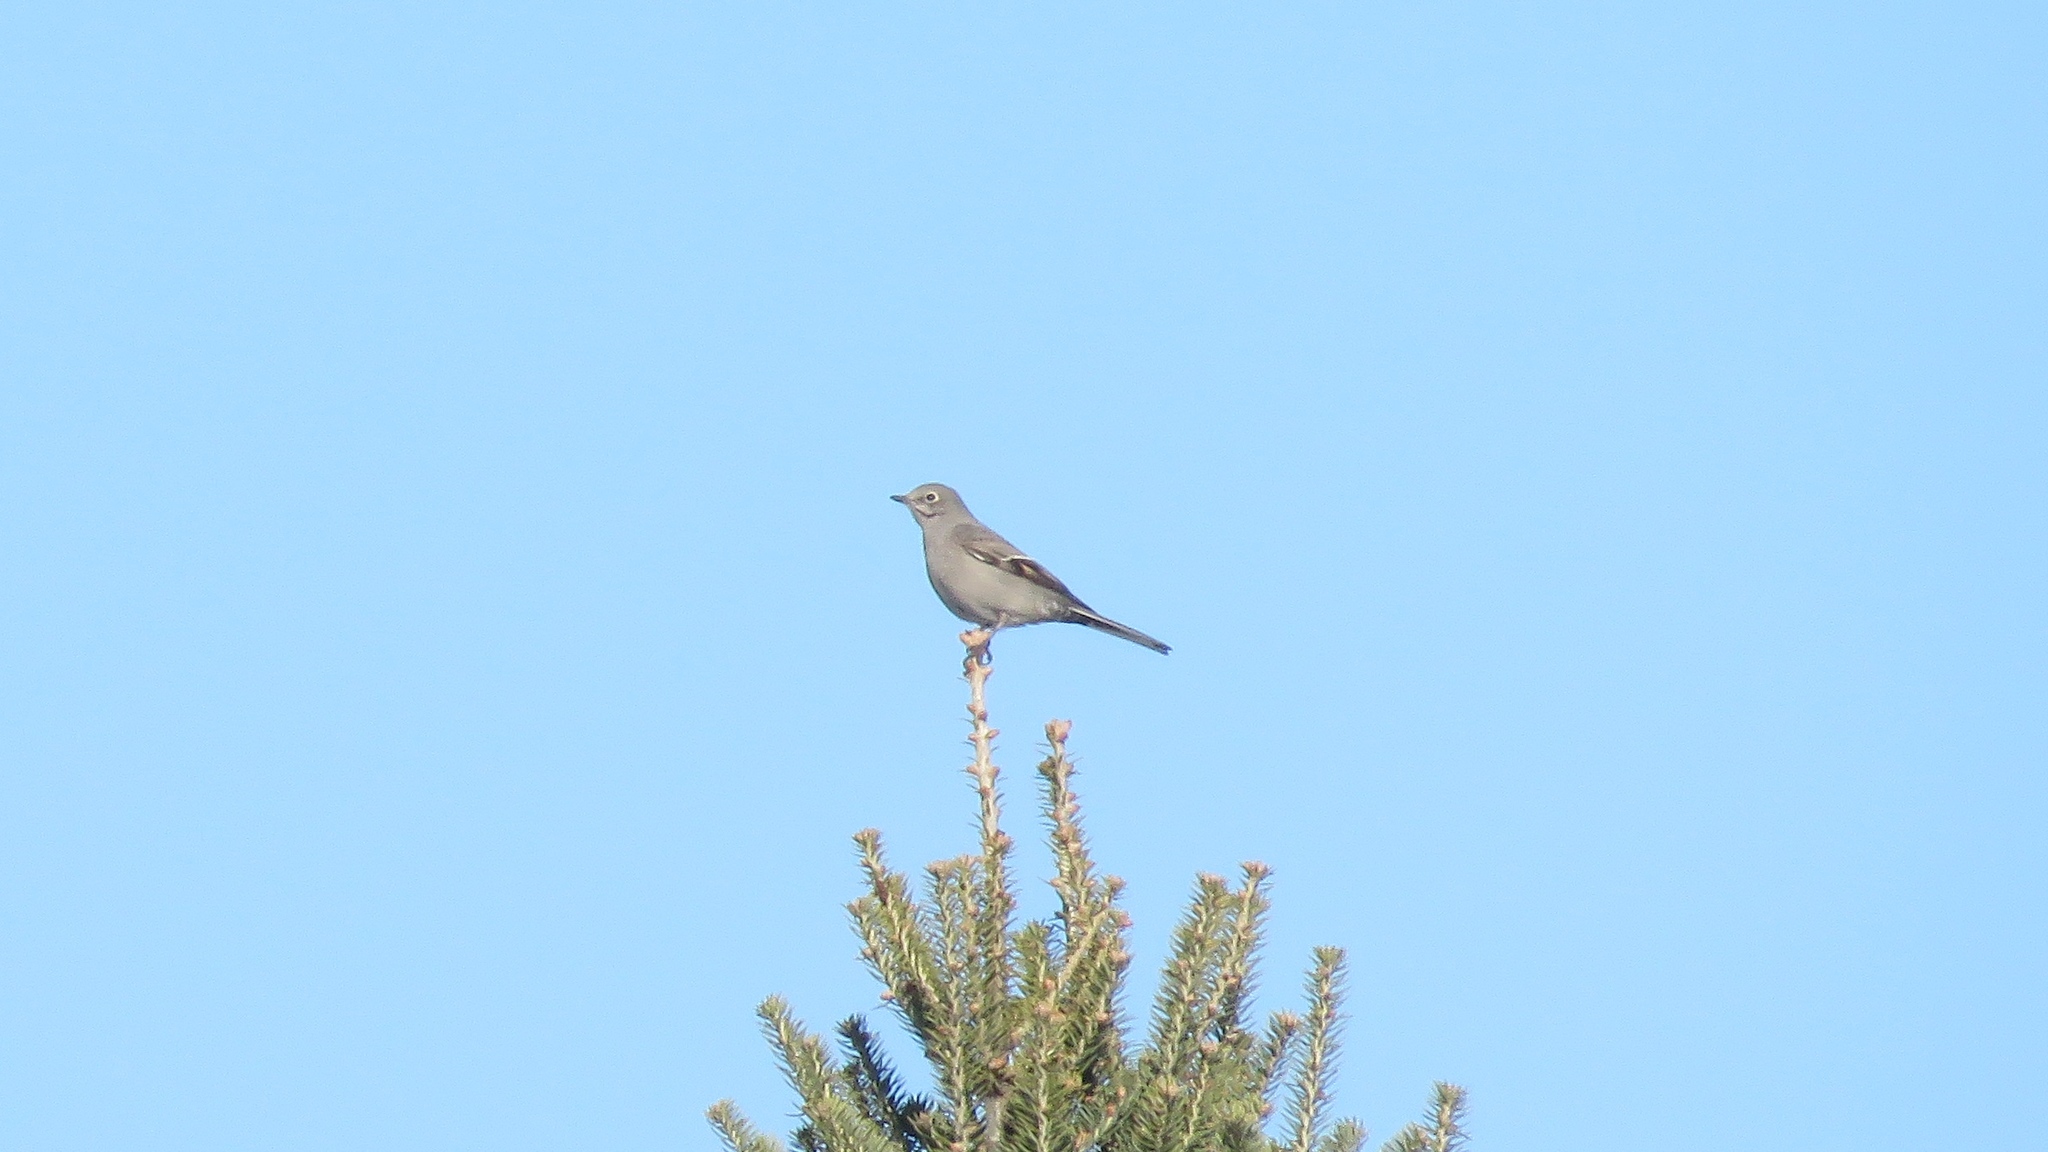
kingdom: Animalia
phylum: Chordata
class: Aves
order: Passeriformes
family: Turdidae
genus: Myadestes
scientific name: Myadestes townsendi
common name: Townsend's solitaire
